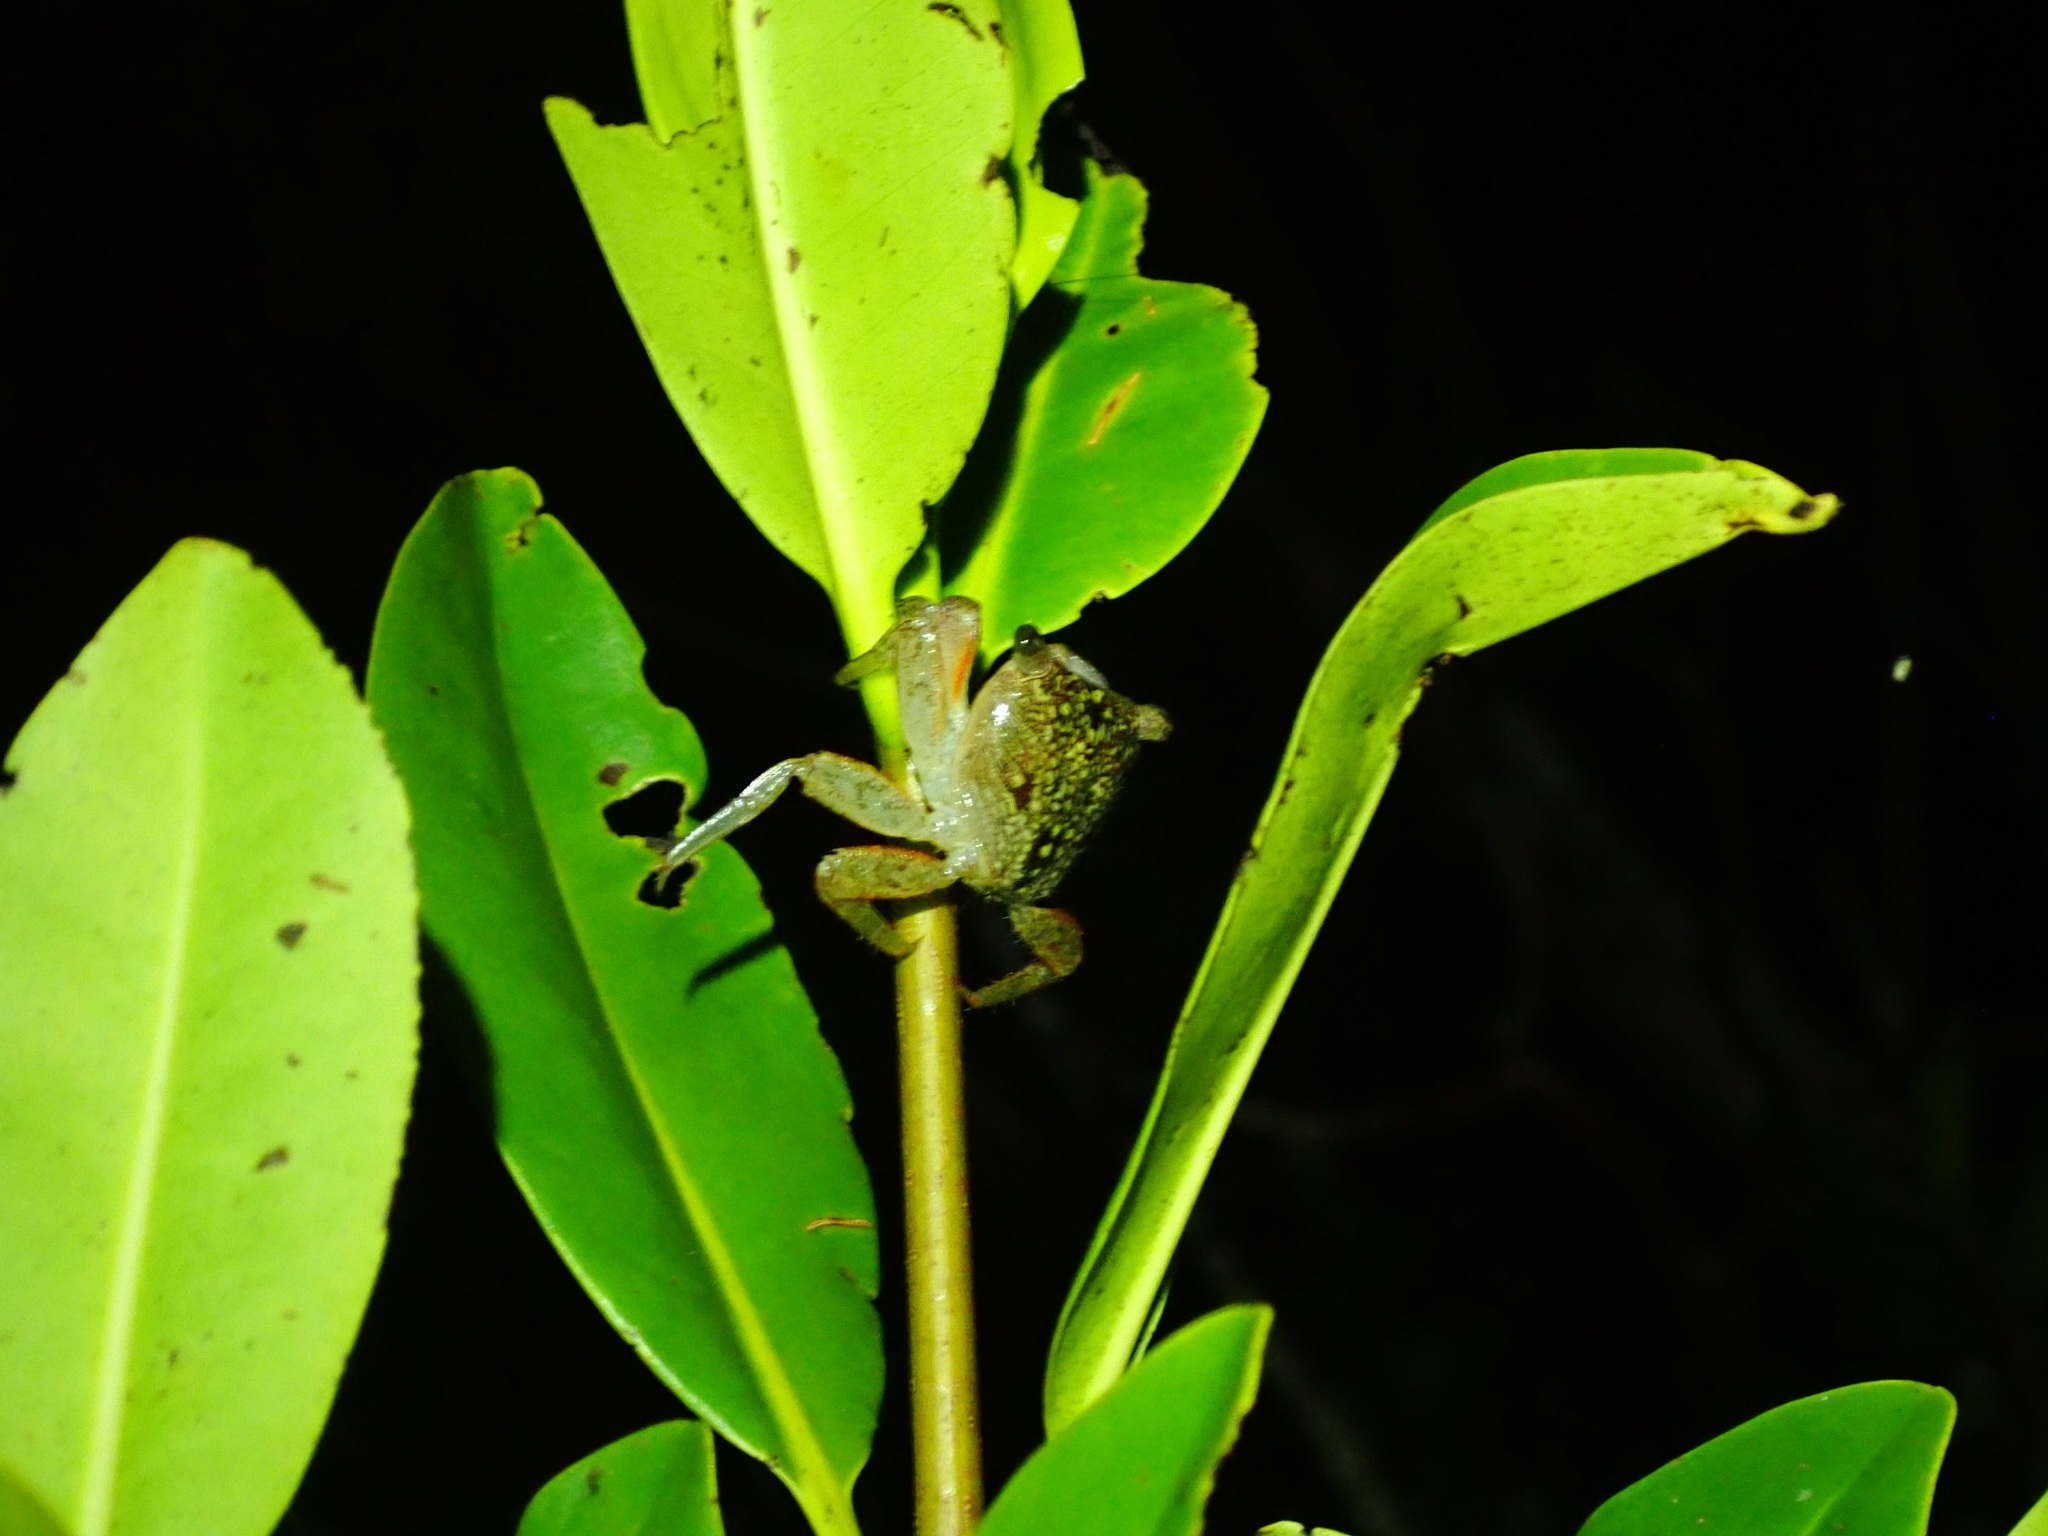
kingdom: Animalia
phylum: Arthropoda
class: Malacostraca
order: Decapoda
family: Sesarmidae
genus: Aratus
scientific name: Aratus pisonii
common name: Mangrove crab
